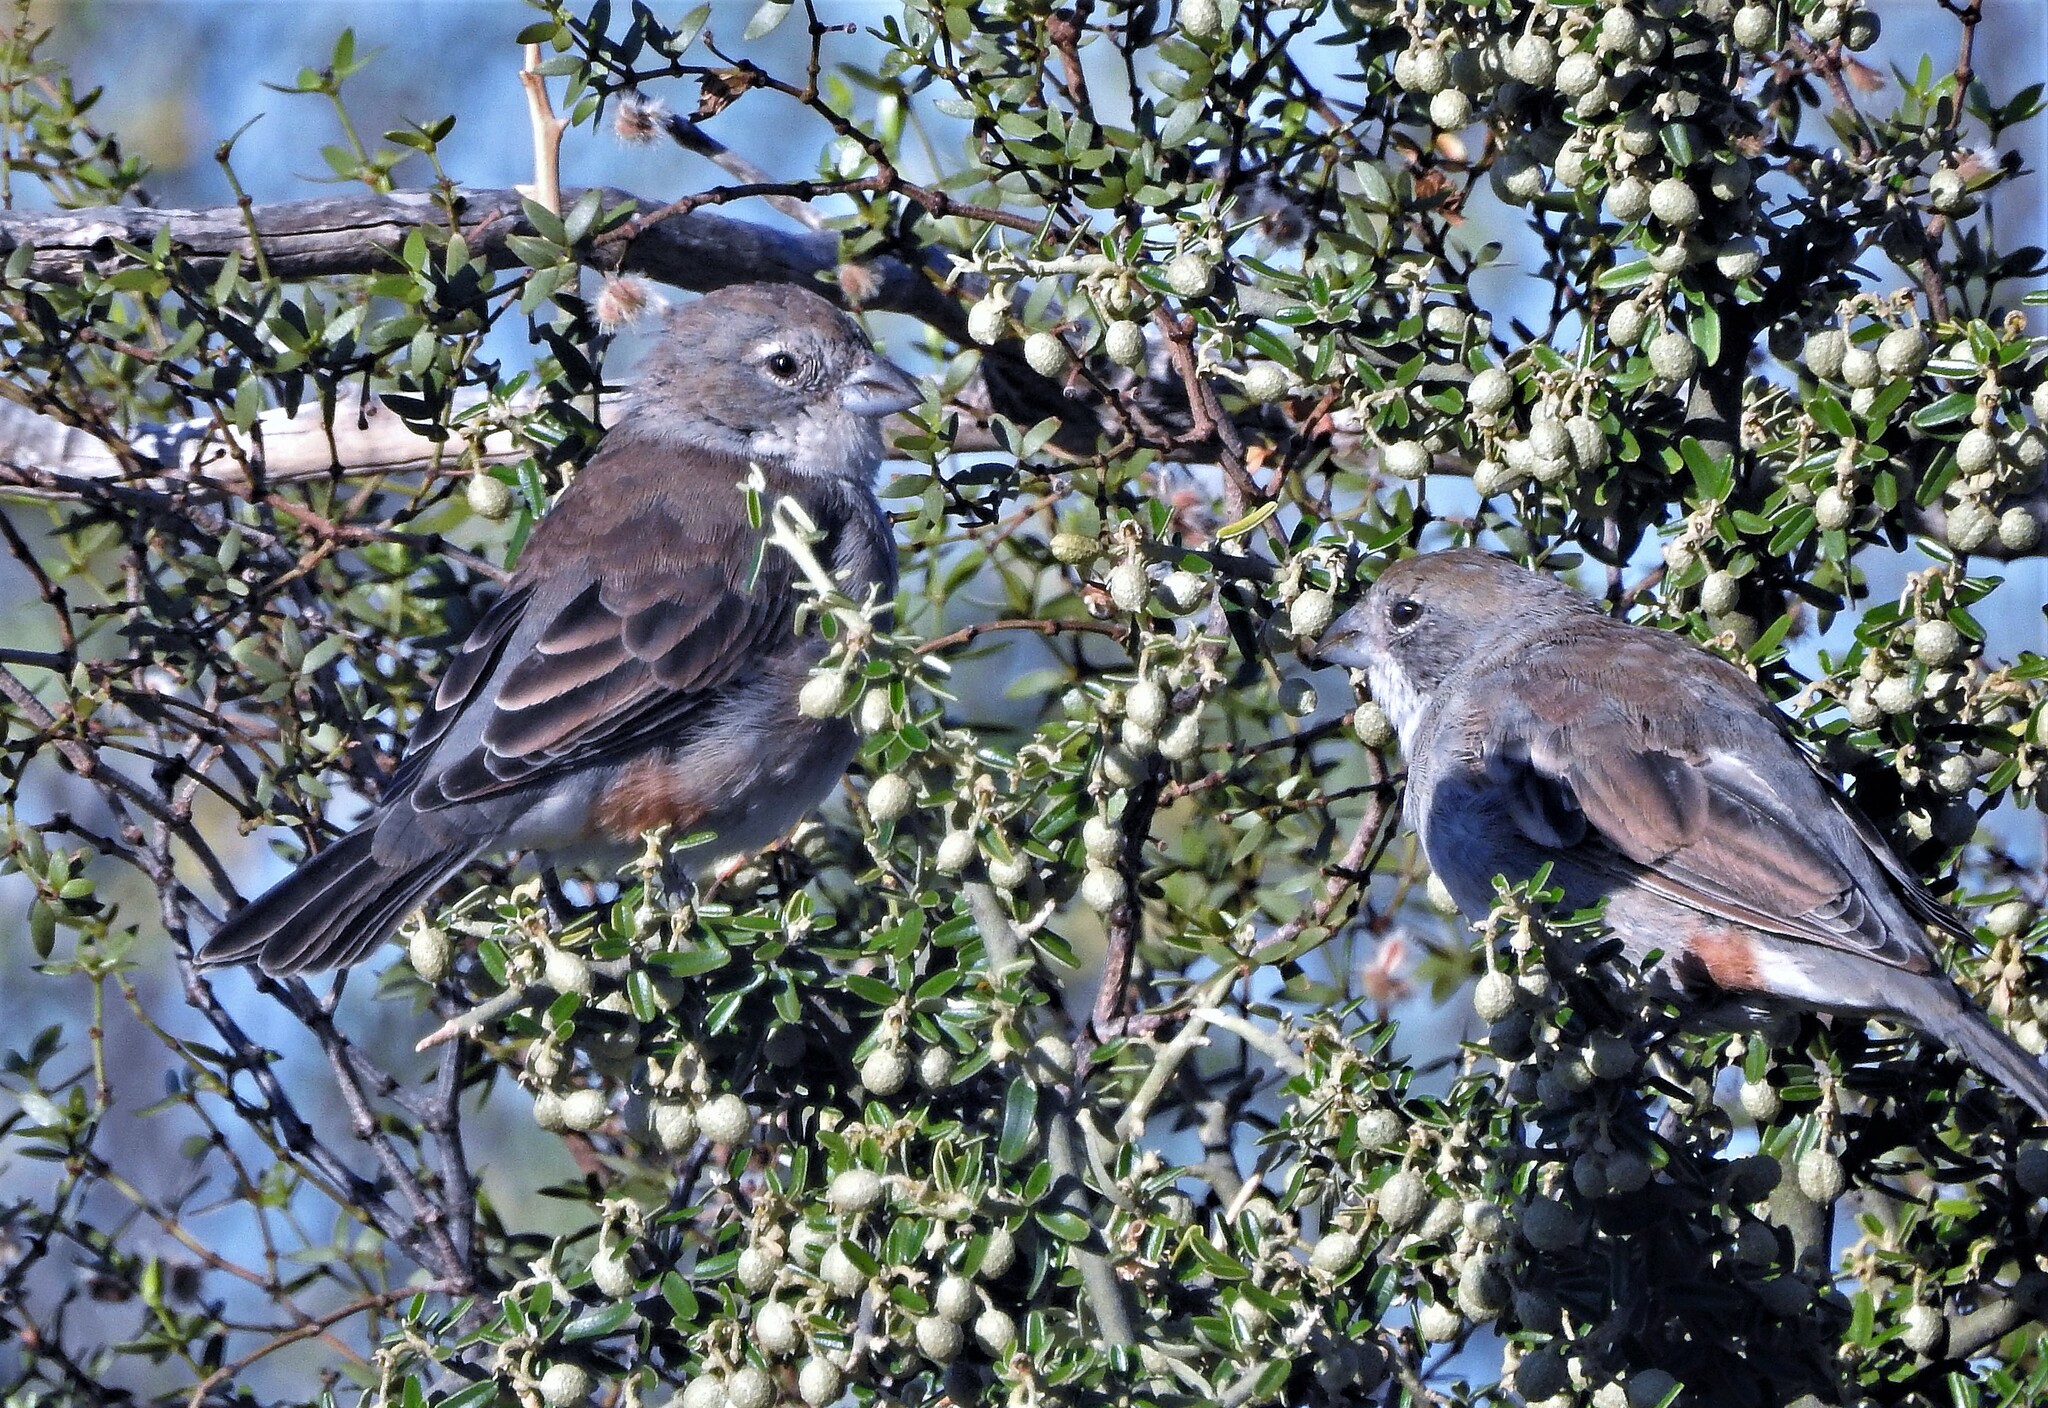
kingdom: Animalia
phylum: Chordata
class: Aves
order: Passeriformes
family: Thraupidae
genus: Diuca
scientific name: Diuca diuca
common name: Common diuca finch
